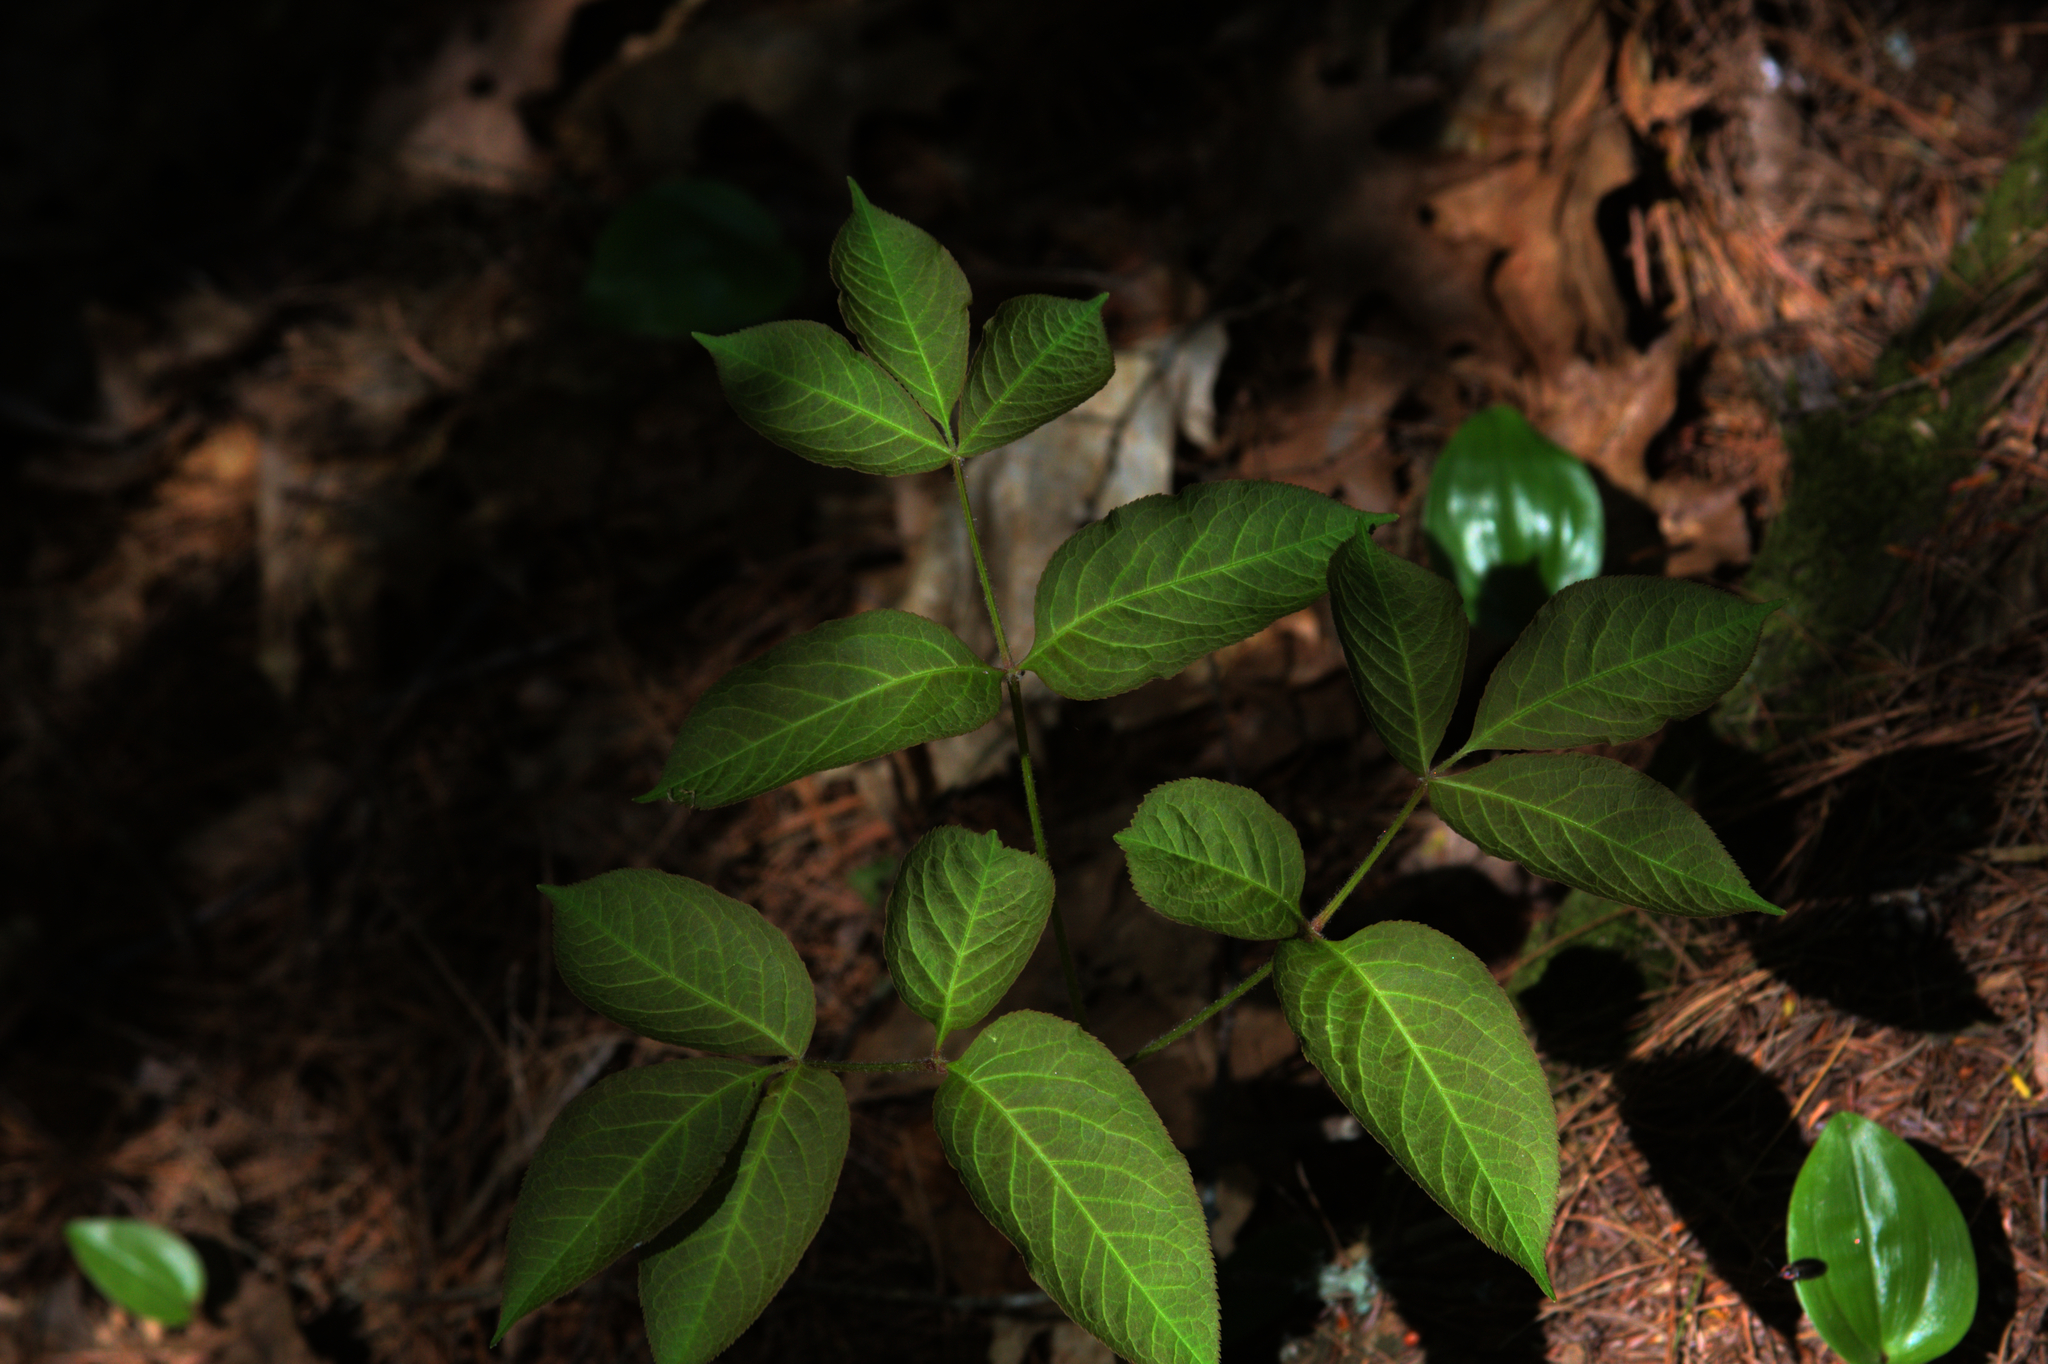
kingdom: Plantae
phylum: Tracheophyta
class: Magnoliopsida
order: Apiales
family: Araliaceae
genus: Aralia
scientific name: Aralia nudicaulis
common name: Wild sarsaparilla
